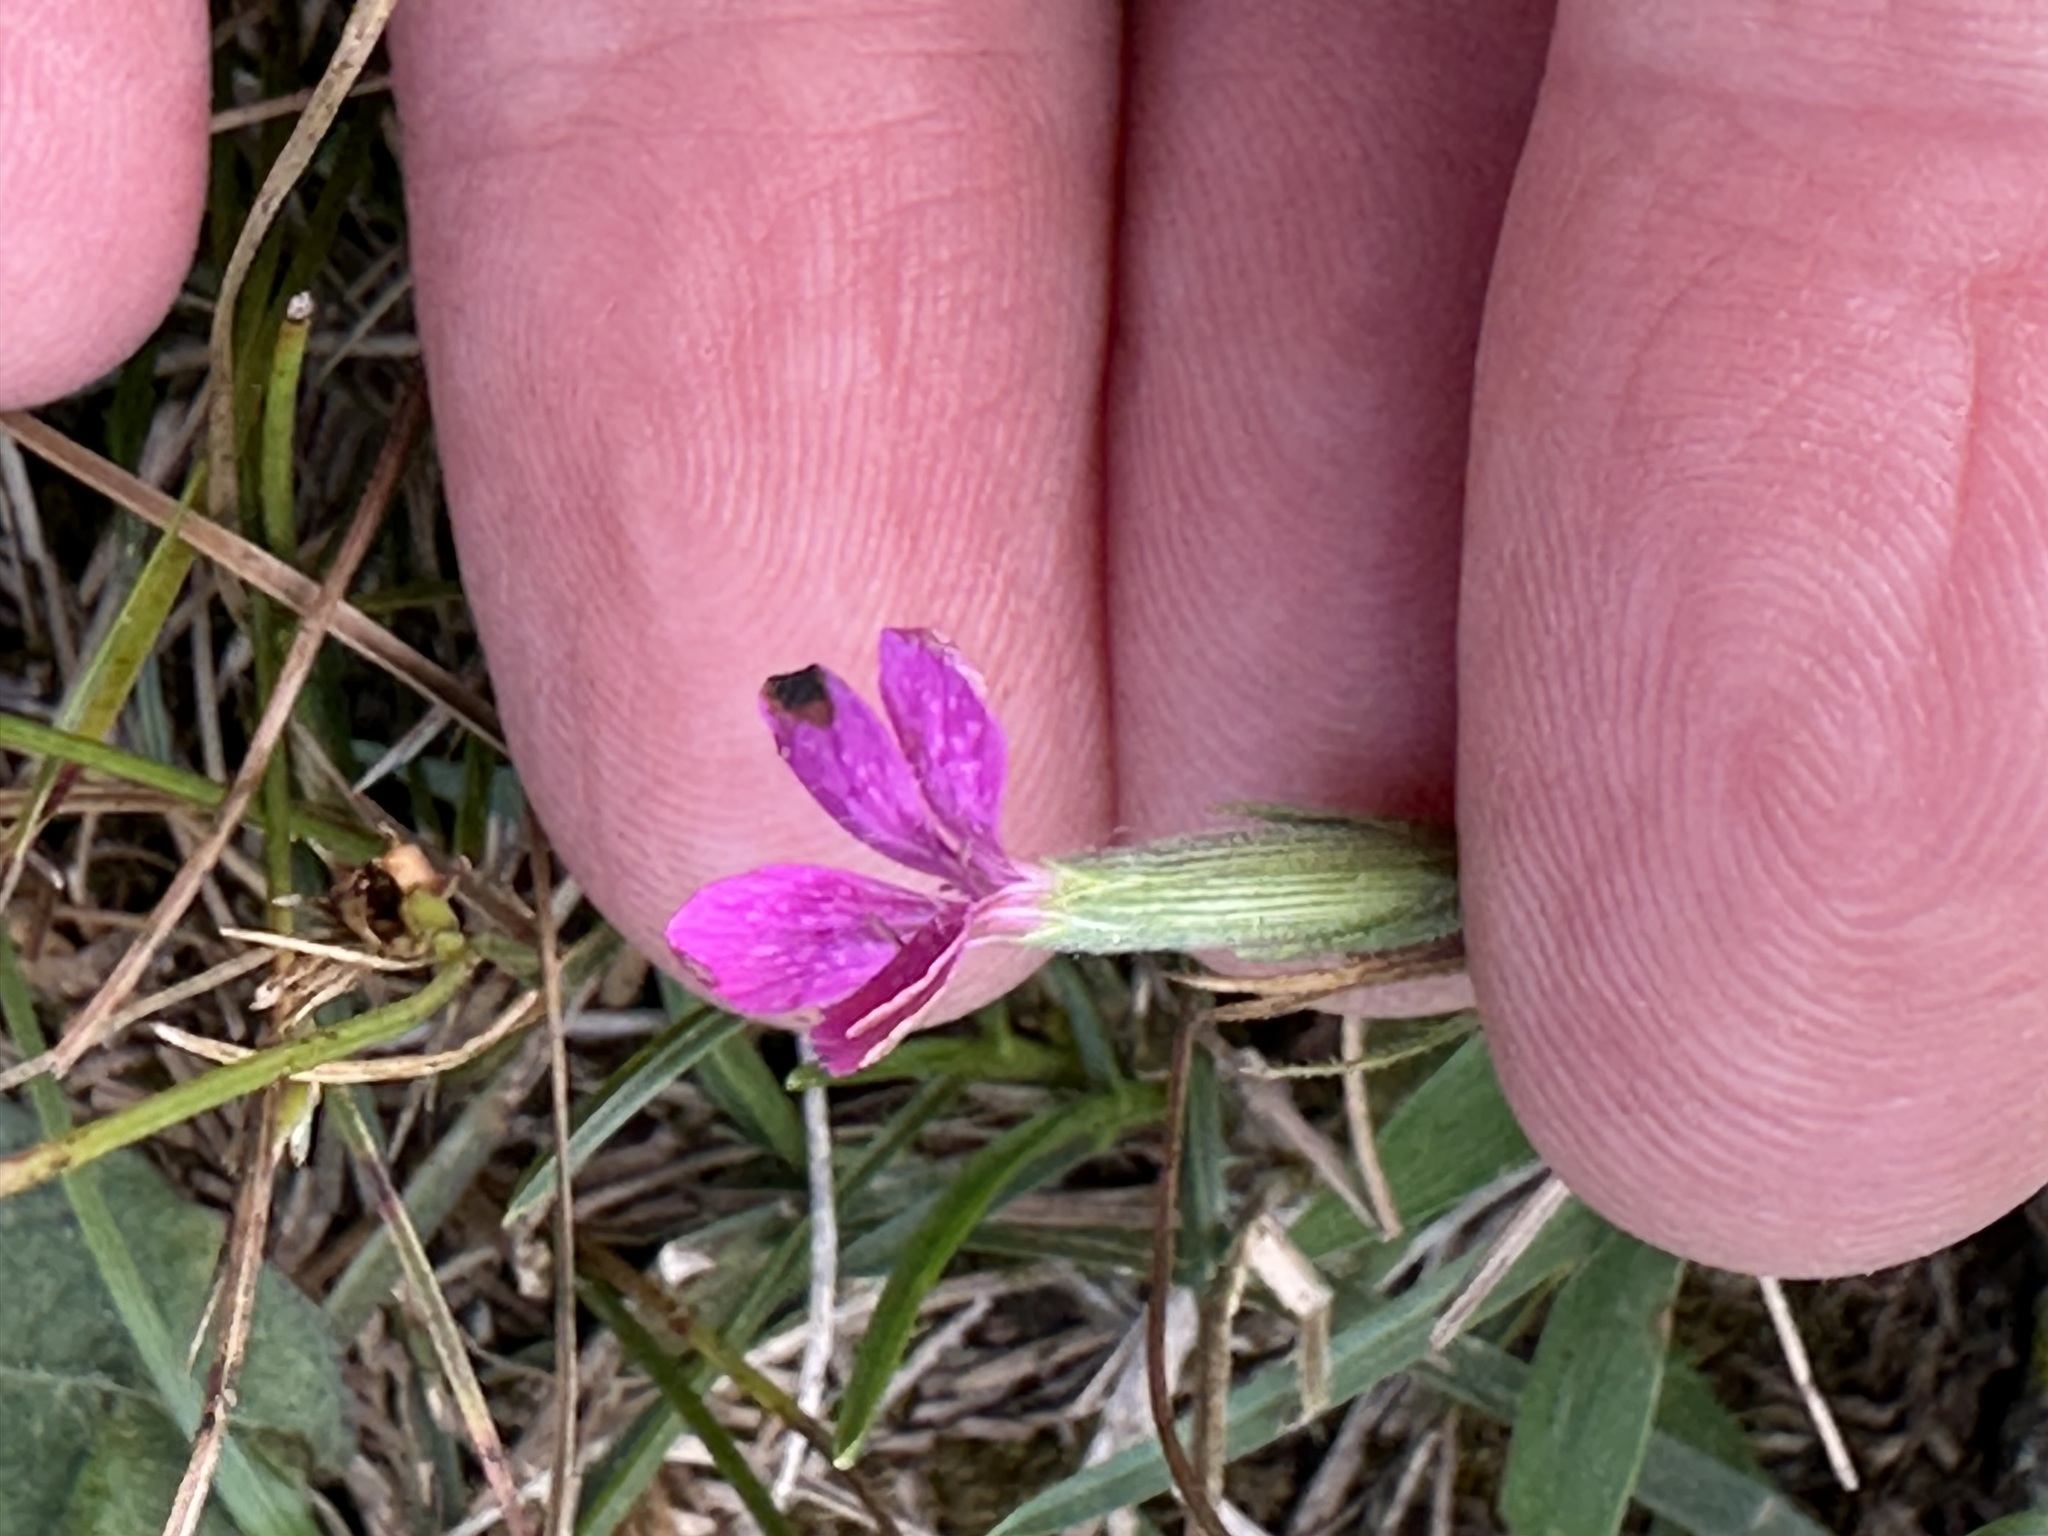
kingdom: Plantae
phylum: Tracheophyta
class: Magnoliopsida
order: Caryophyllales
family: Caryophyllaceae
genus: Dianthus
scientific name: Dianthus armeria
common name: Deptford pink
